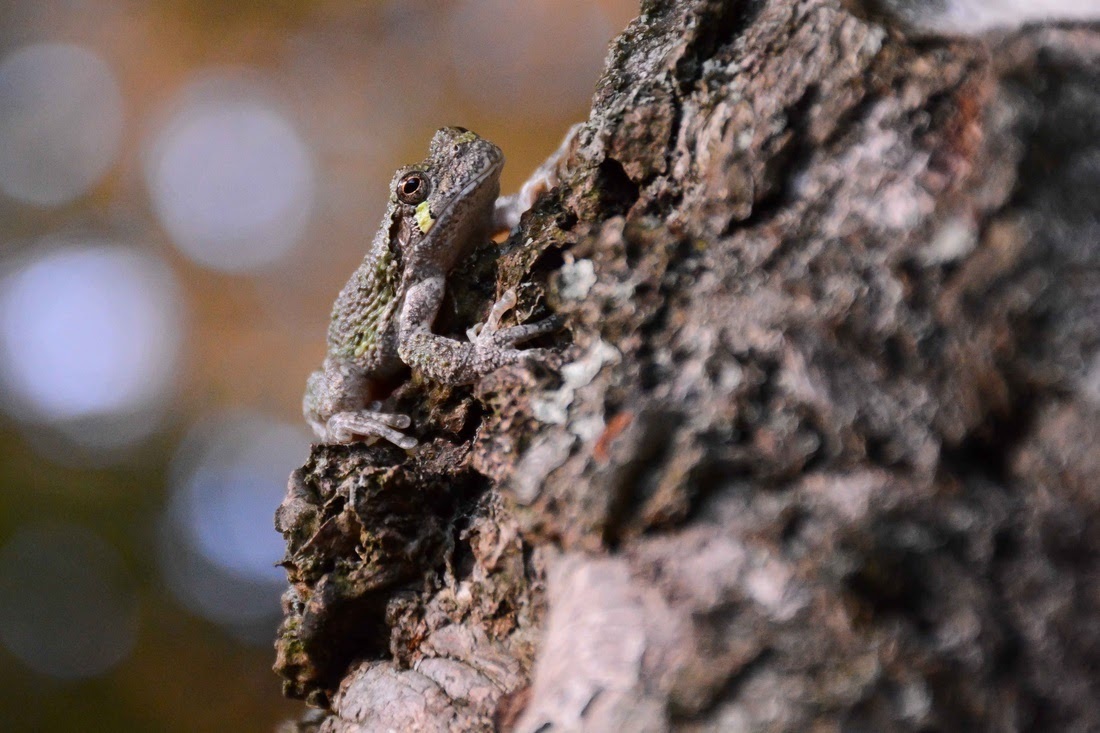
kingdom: Animalia
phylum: Chordata
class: Amphibia
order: Anura
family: Hylidae
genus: Dryophytes
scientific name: Dryophytes versicolor
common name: Gray treefrog
